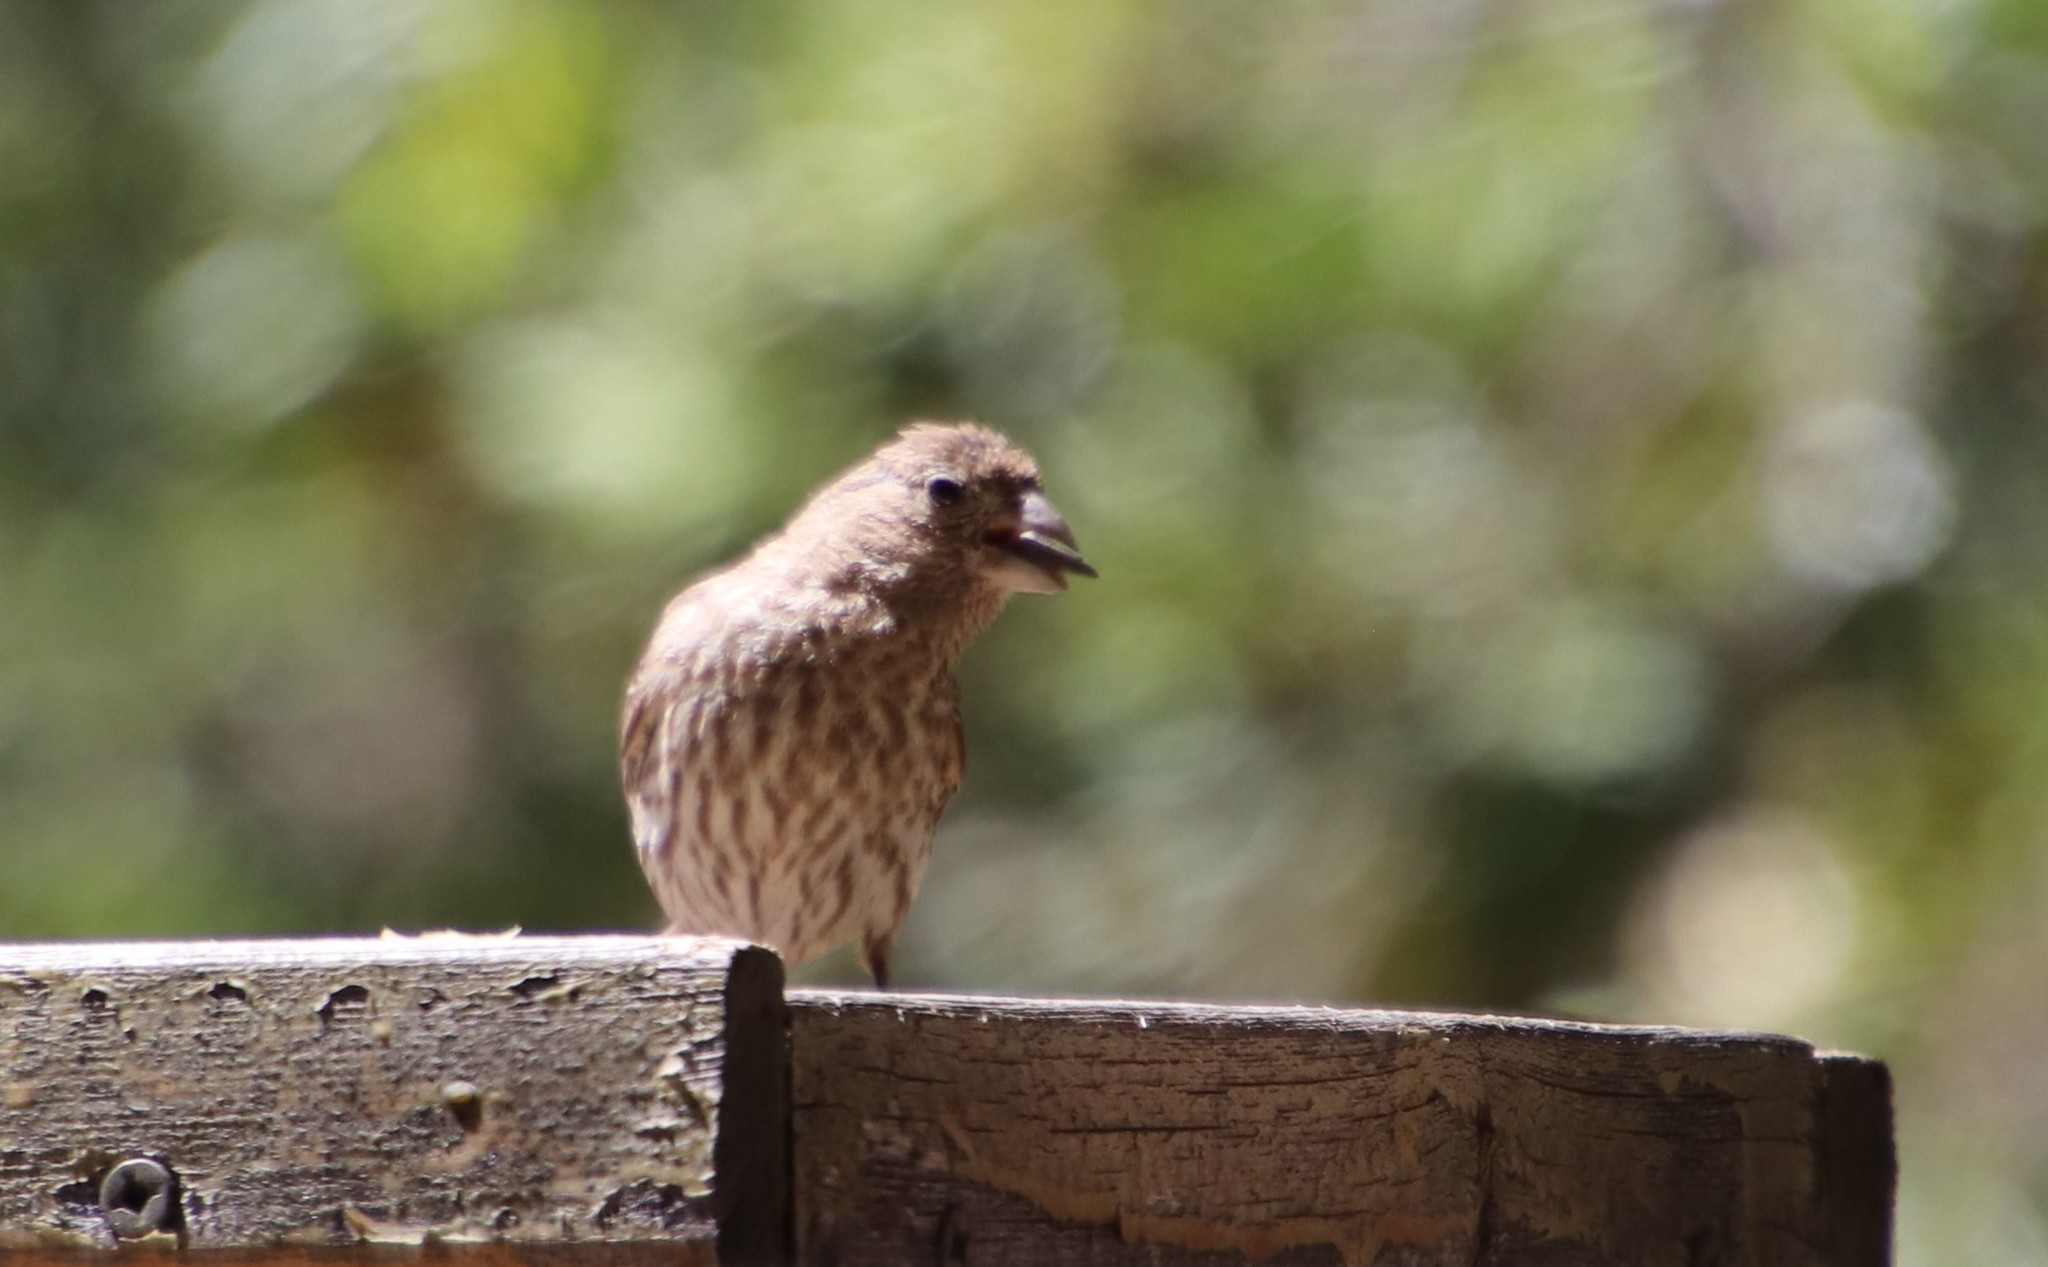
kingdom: Animalia
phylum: Chordata
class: Aves
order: Passeriformes
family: Fringillidae
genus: Haemorhous
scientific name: Haemorhous mexicanus
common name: House finch
